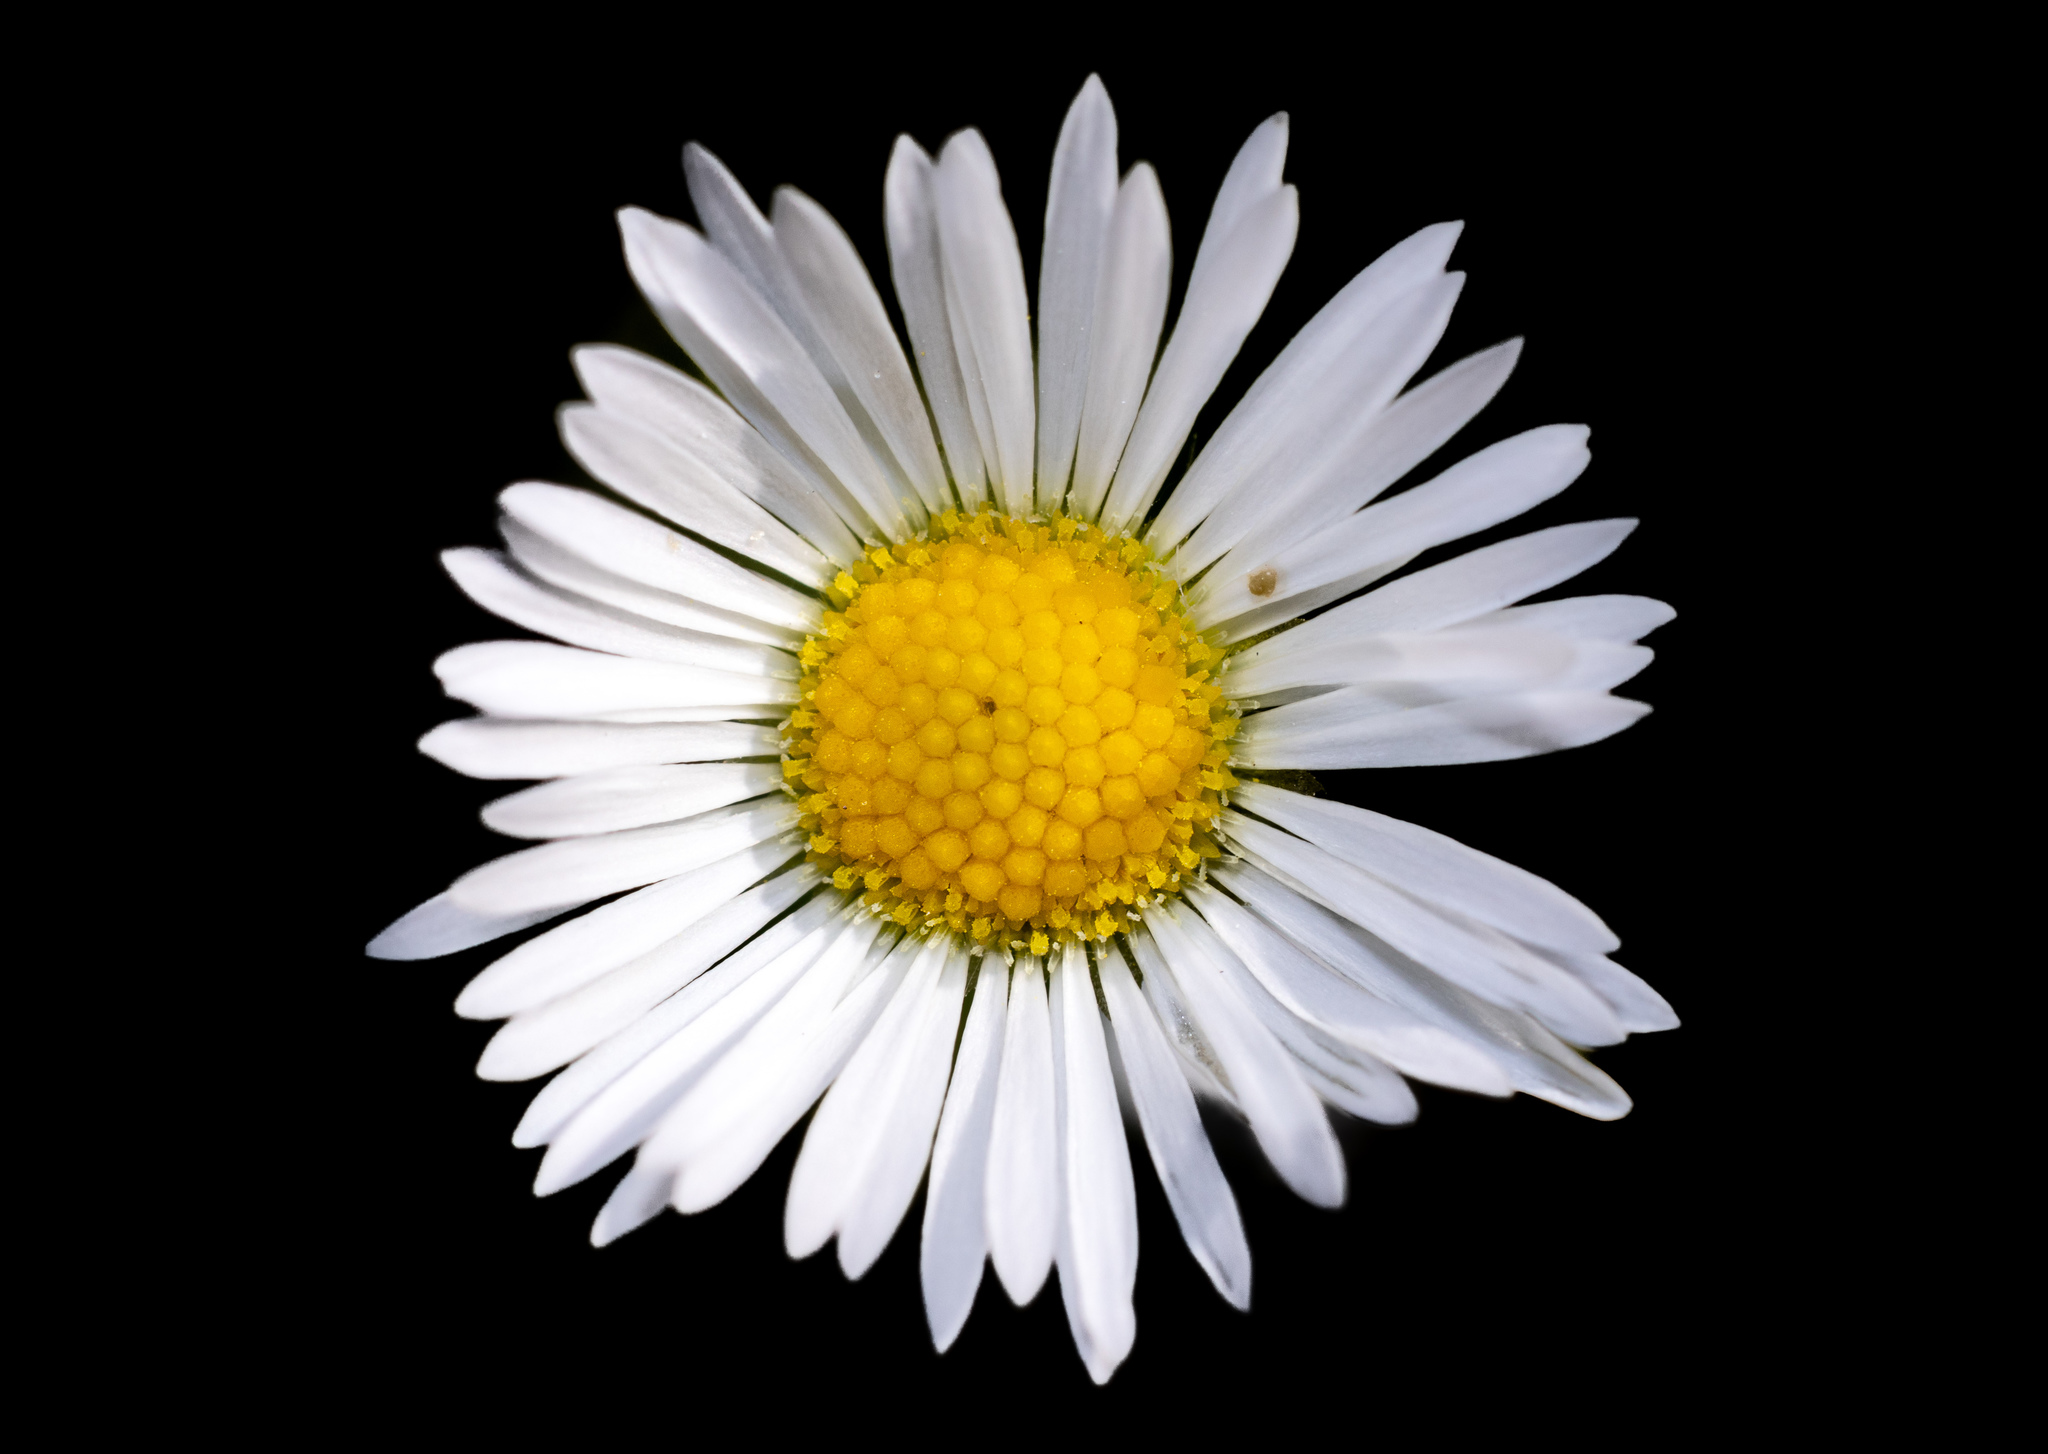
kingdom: Plantae
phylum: Tracheophyta
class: Magnoliopsida
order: Asterales
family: Asteraceae
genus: Bellis
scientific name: Bellis perennis
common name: Lawndaisy
